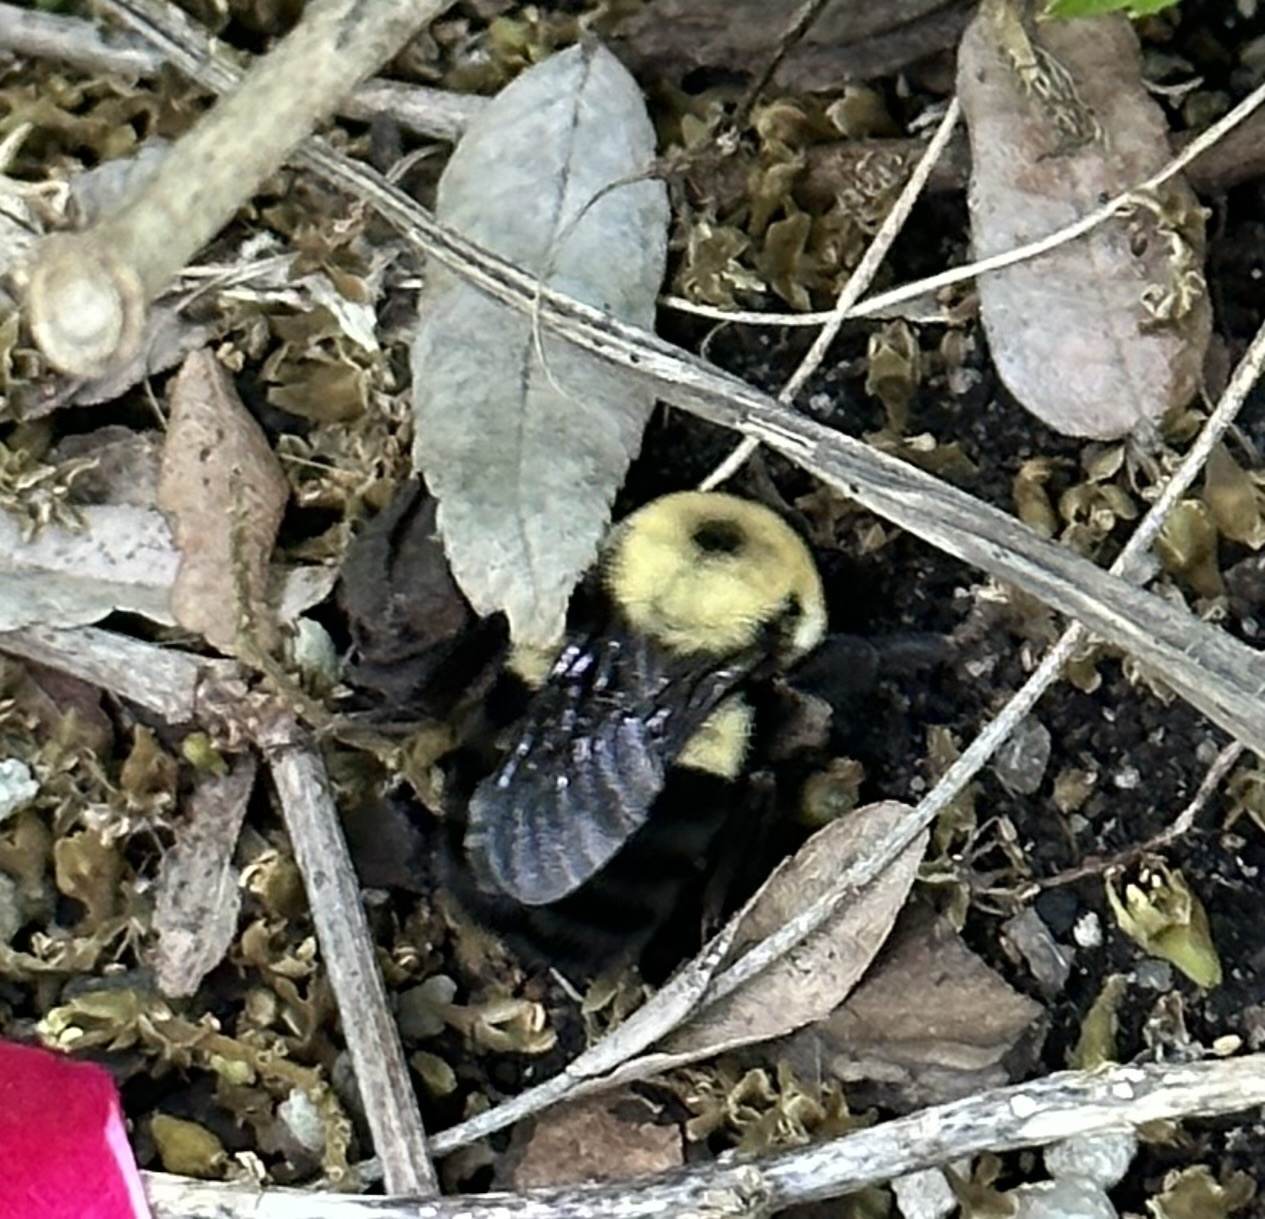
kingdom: Animalia
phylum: Arthropoda
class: Insecta
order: Hymenoptera
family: Apidae
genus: Bombus
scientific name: Bombus griseocollis
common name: Brown-belted bumble bee
